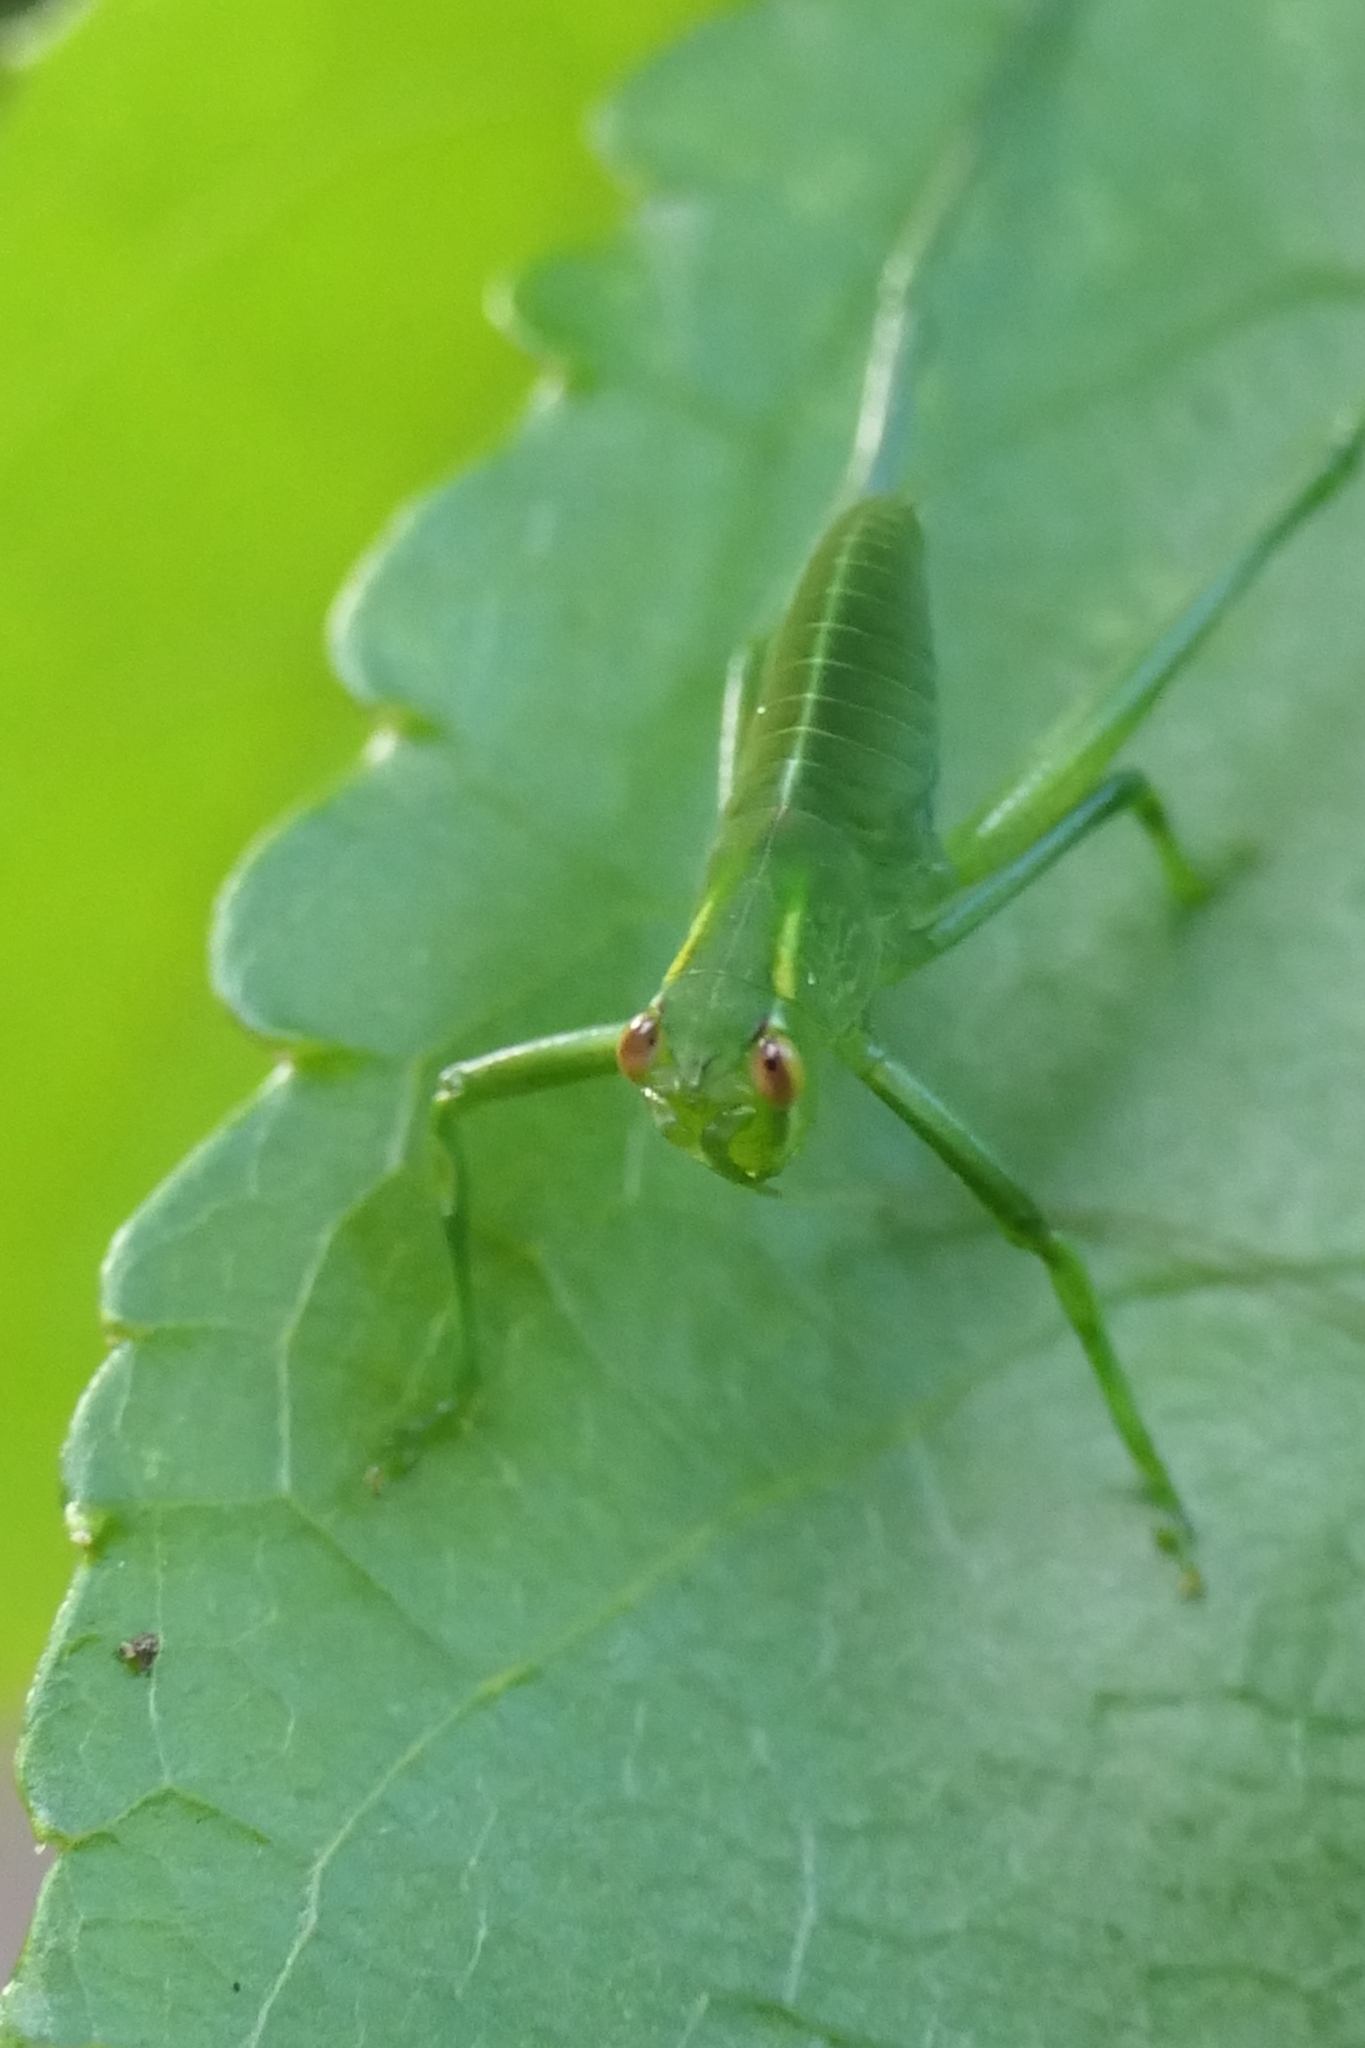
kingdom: Animalia
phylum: Arthropoda
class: Insecta
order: Orthoptera
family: Tettigoniidae
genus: Caedicia
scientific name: Caedicia simplex
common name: Common garden katydid
